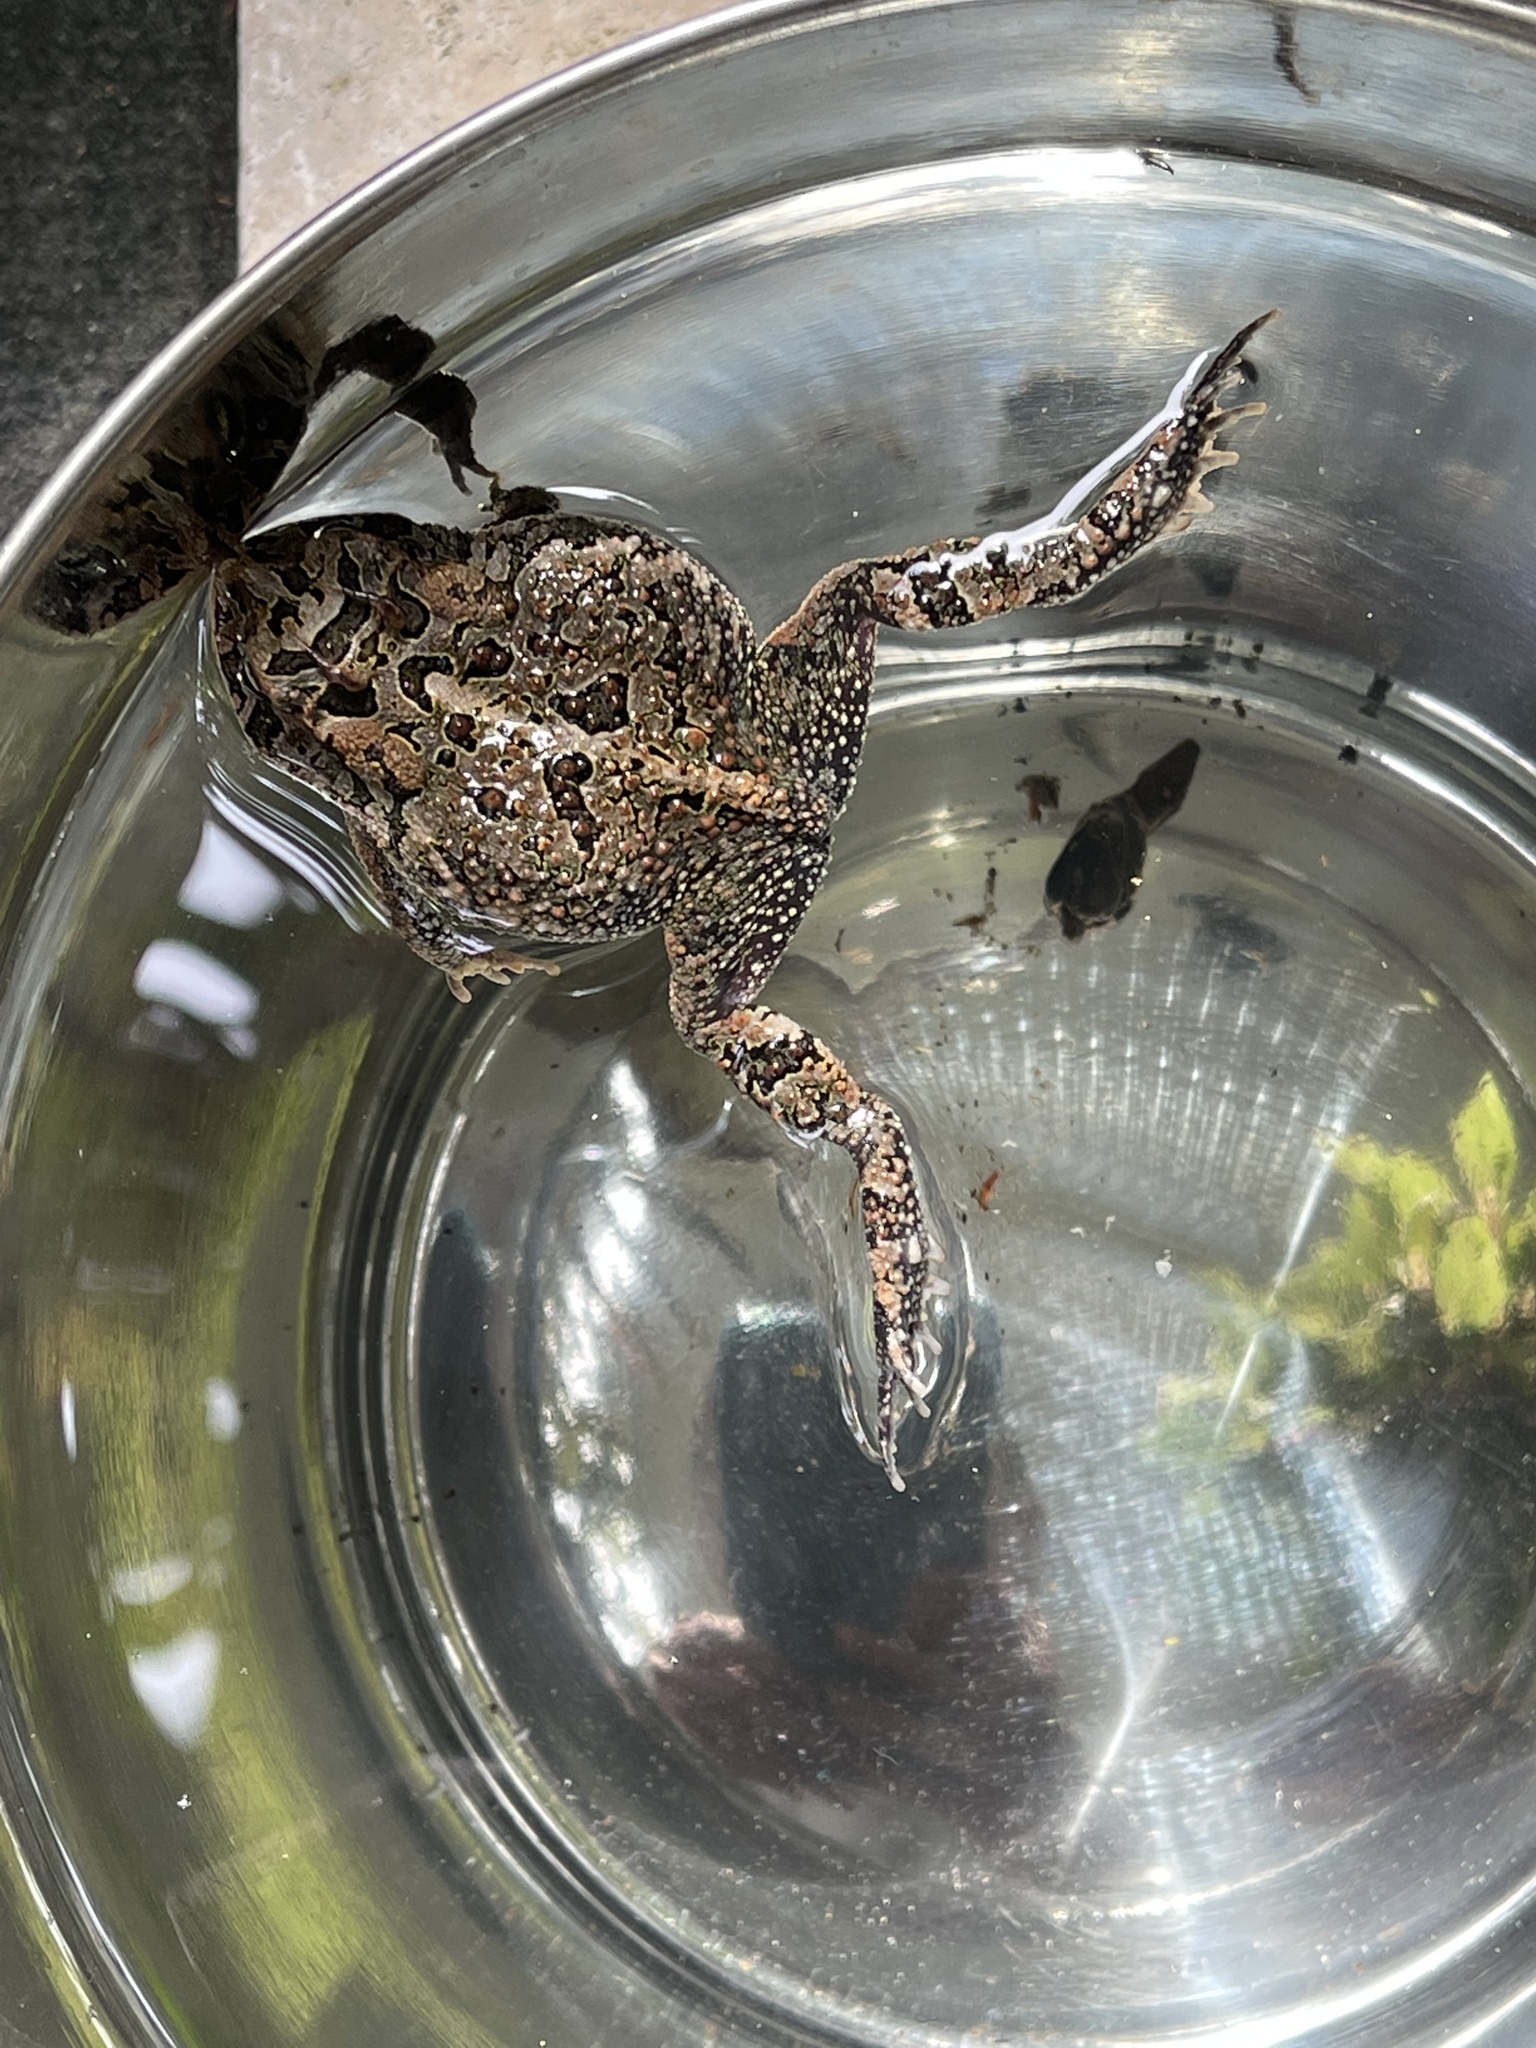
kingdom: Animalia
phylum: Chordata
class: Amphibia
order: Anura
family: Bufonidae
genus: Anaxyrus
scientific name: Anaxyrus terrestris
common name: Southern toad
